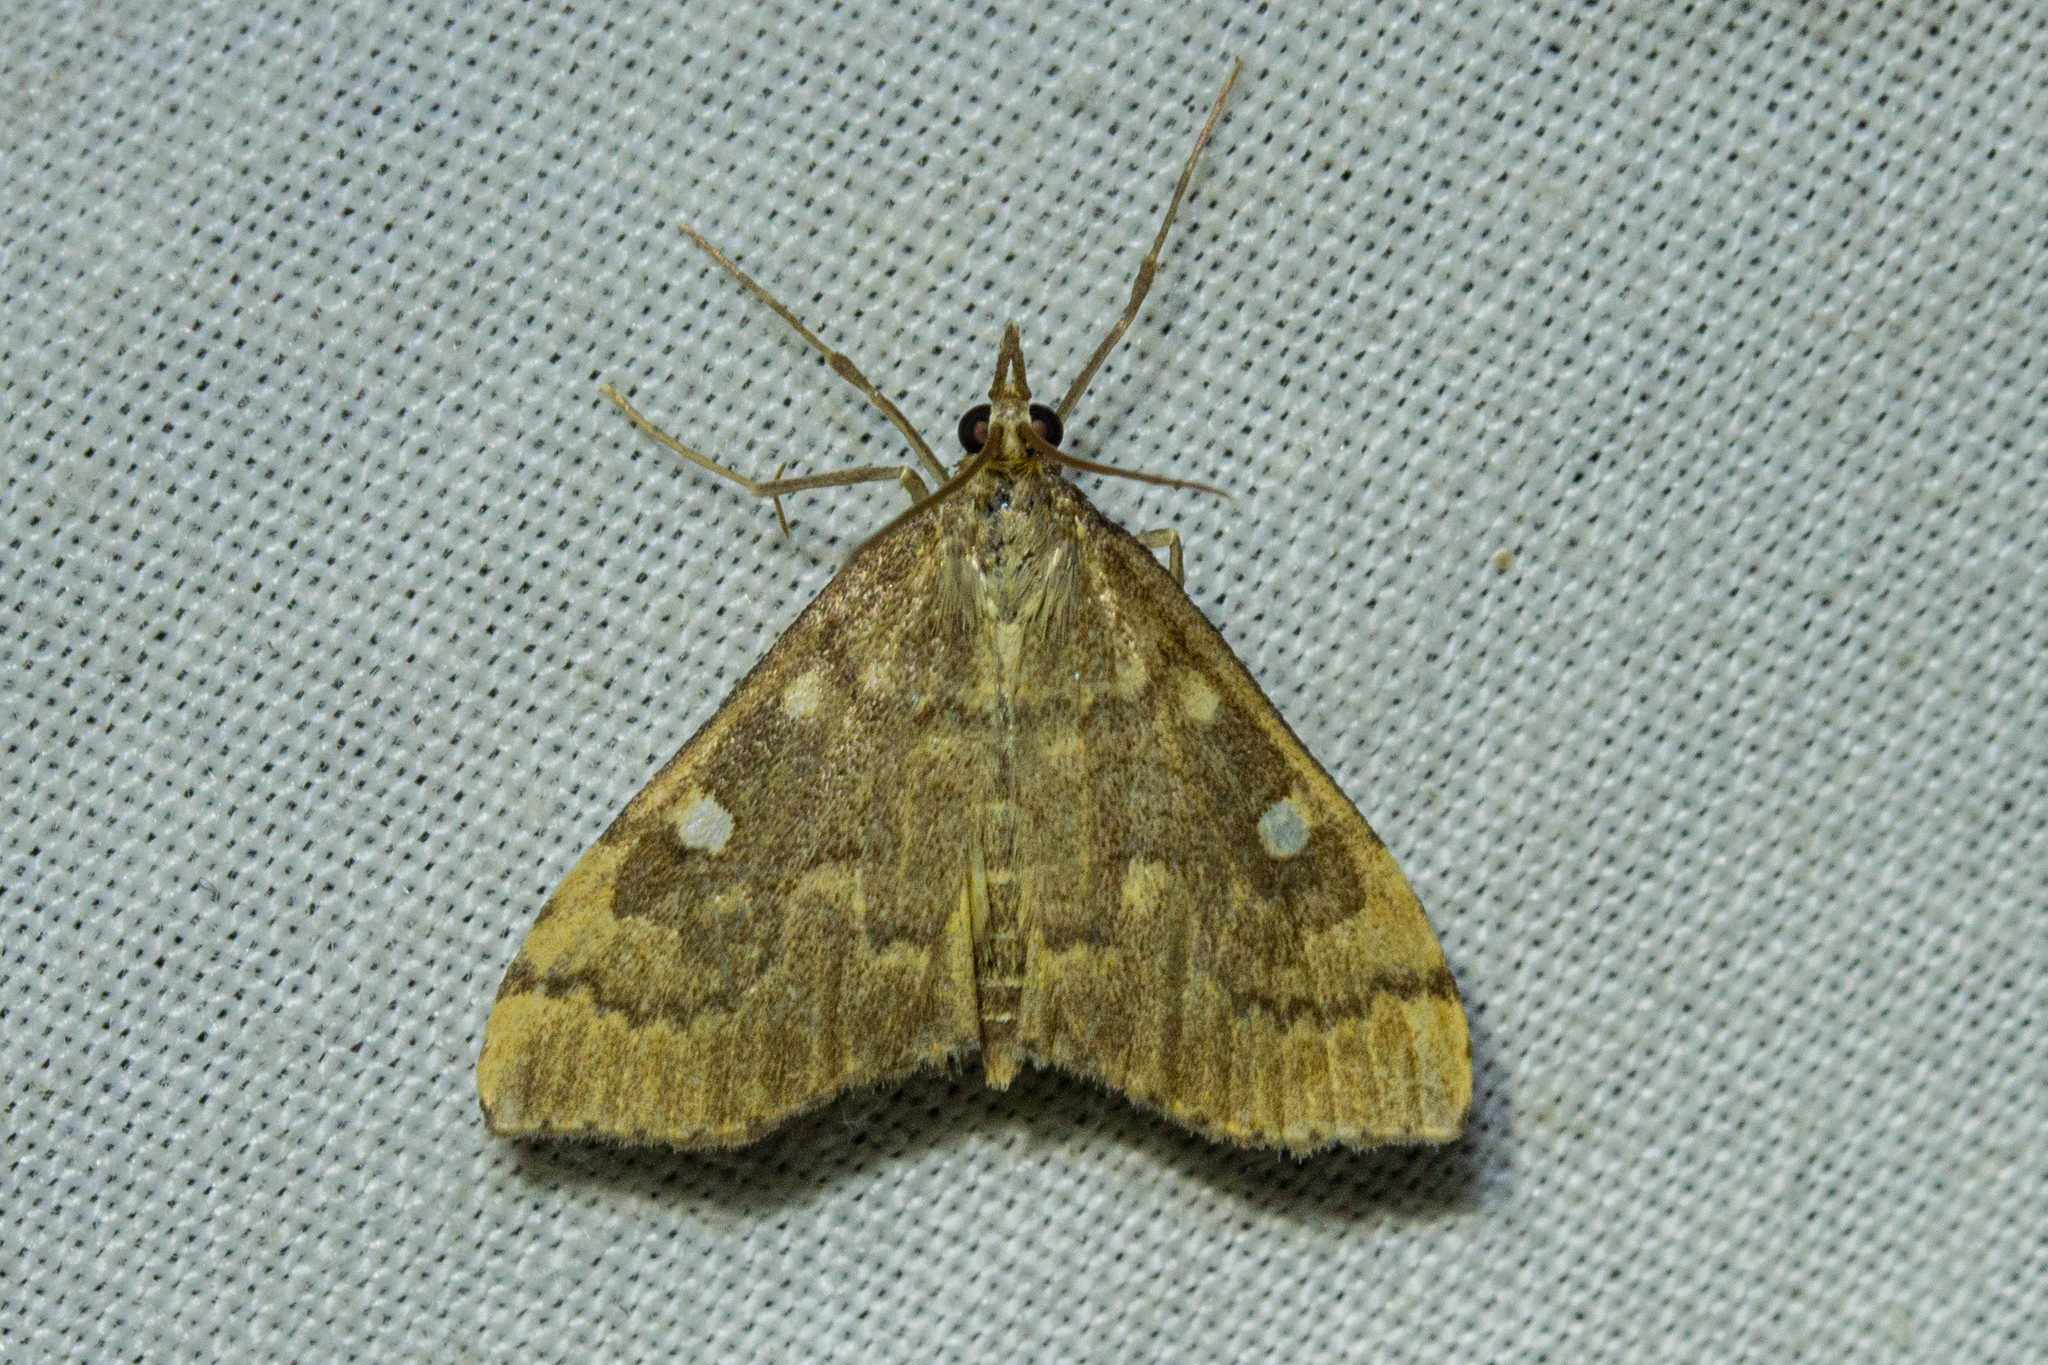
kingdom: Animalia
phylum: Arthropoda
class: Insecta
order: Lepidoptera
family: Crambidae
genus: Udea
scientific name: Udea marmarina
